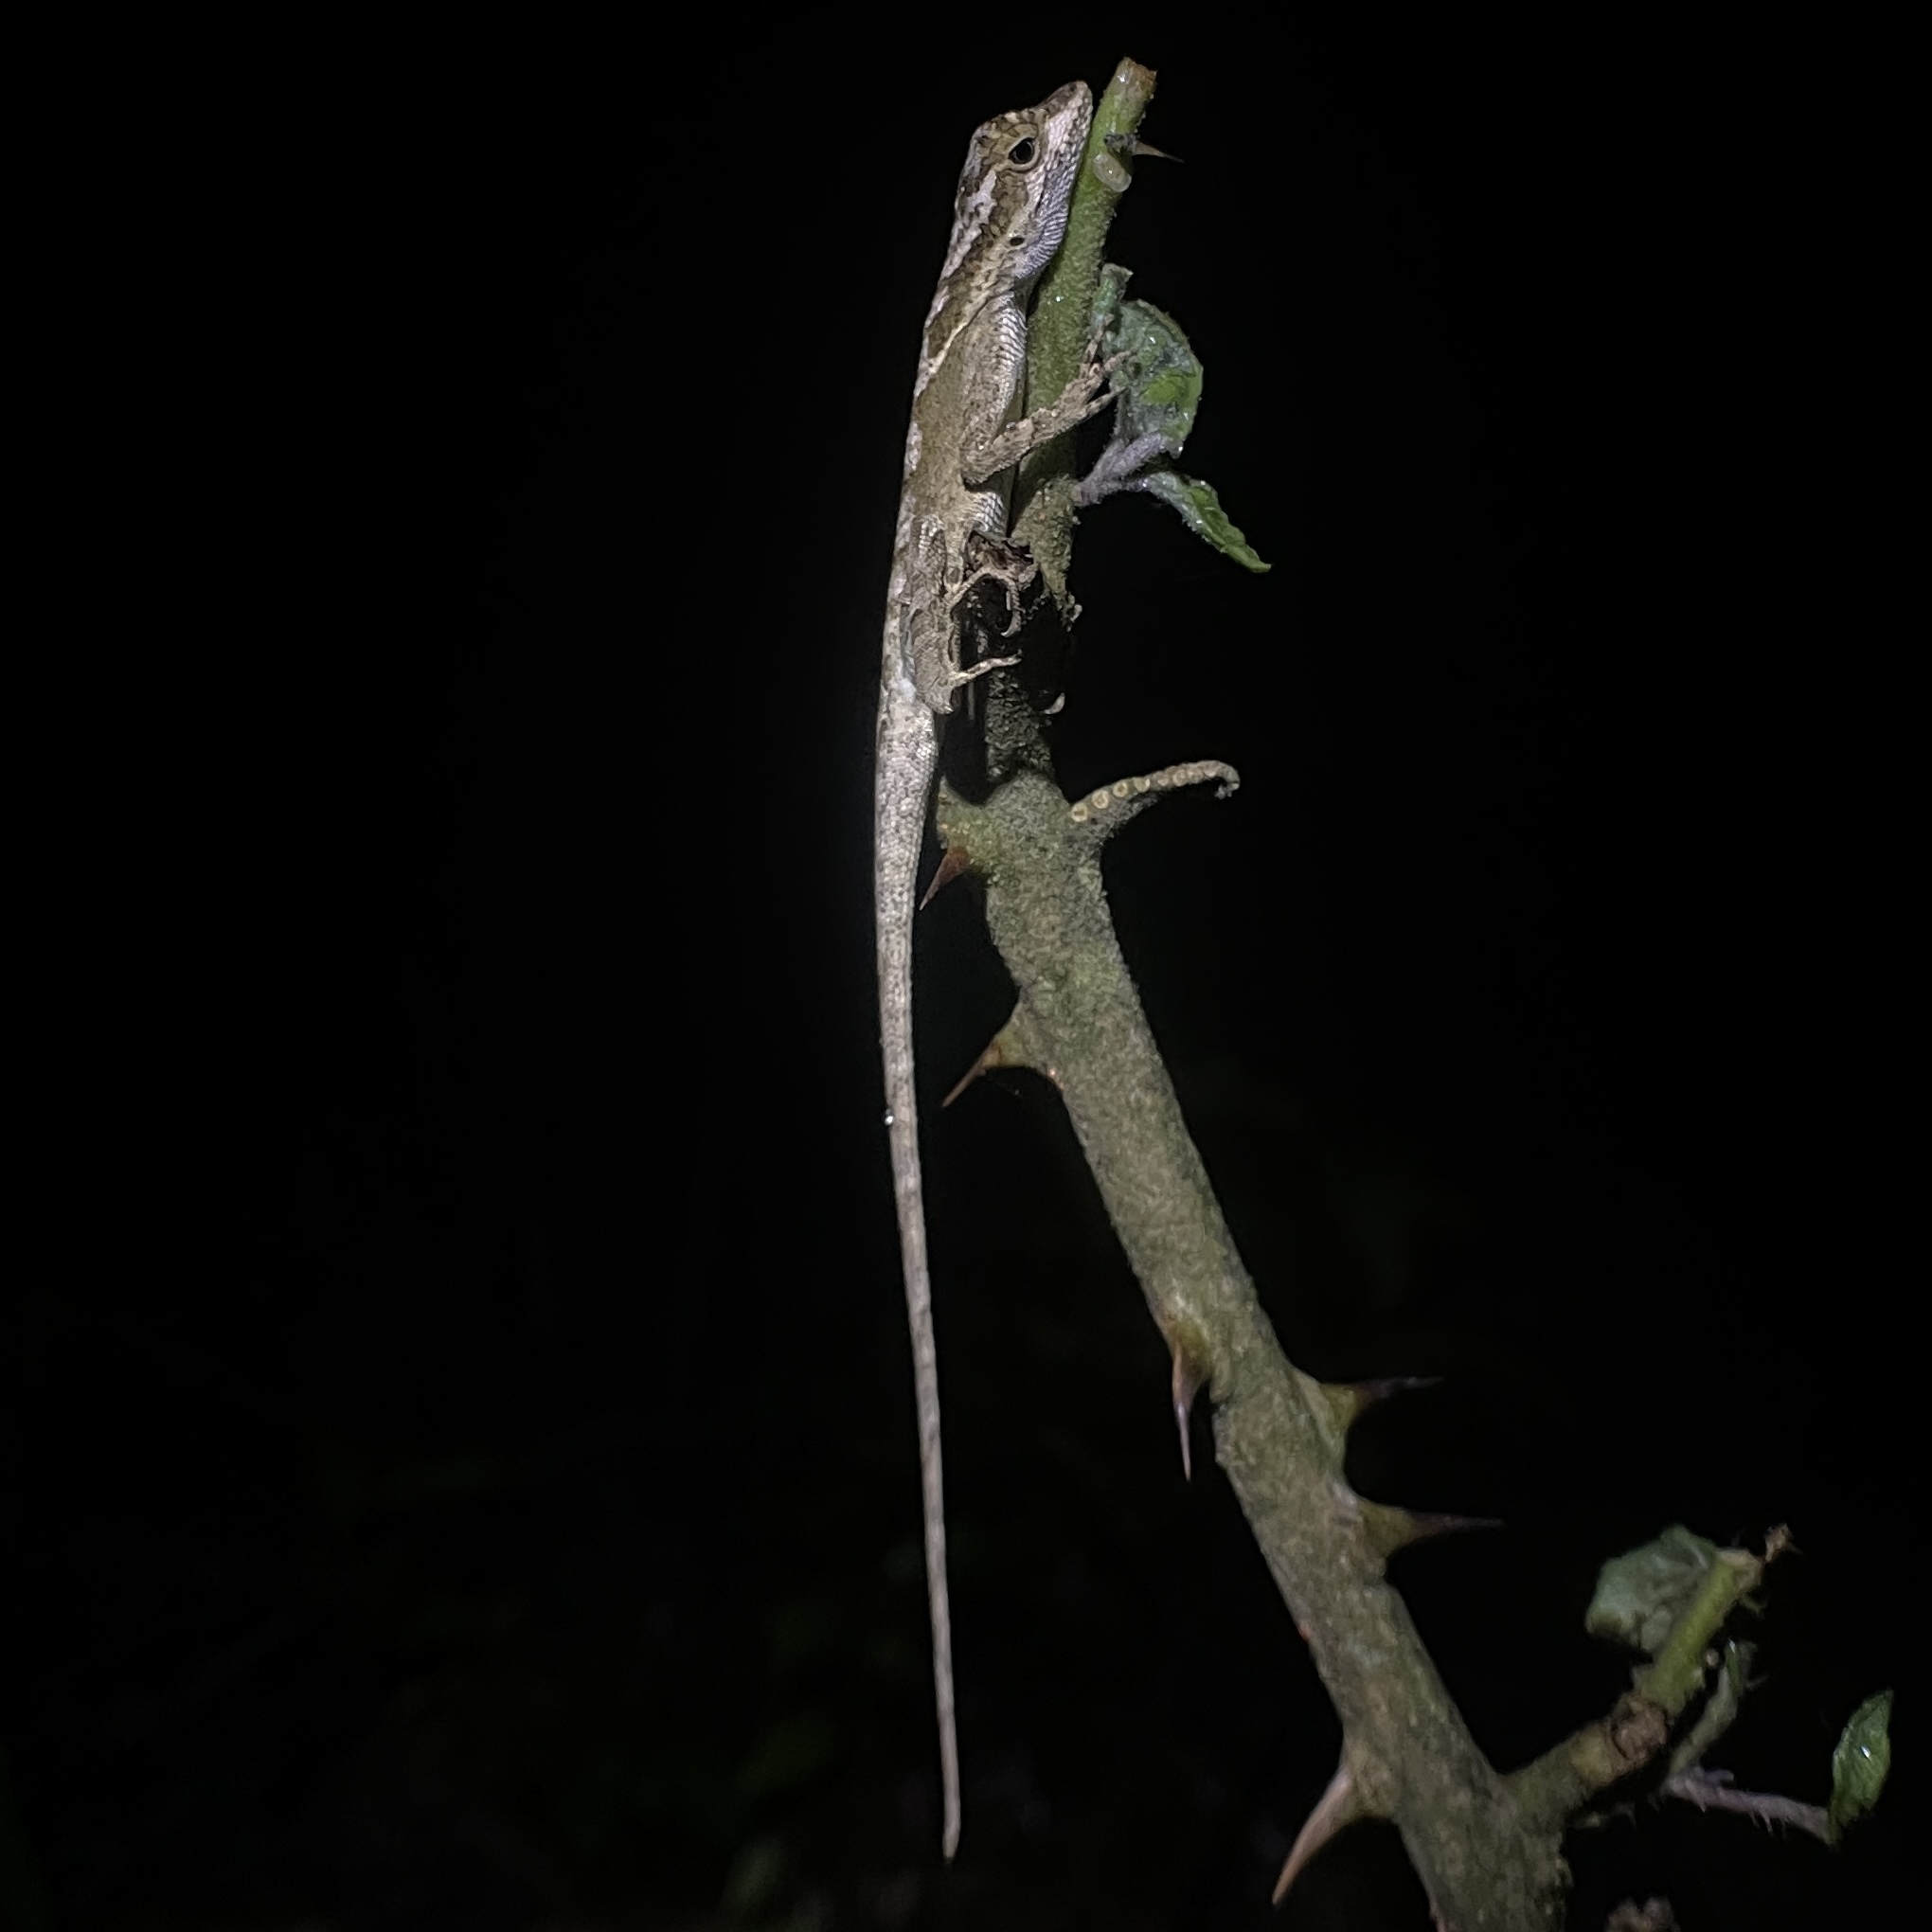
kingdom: Animalia
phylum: Chordata
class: Squamata
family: Dactyloidae
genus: Anolis
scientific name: Anolis planiceps
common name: Goldenscale anole
